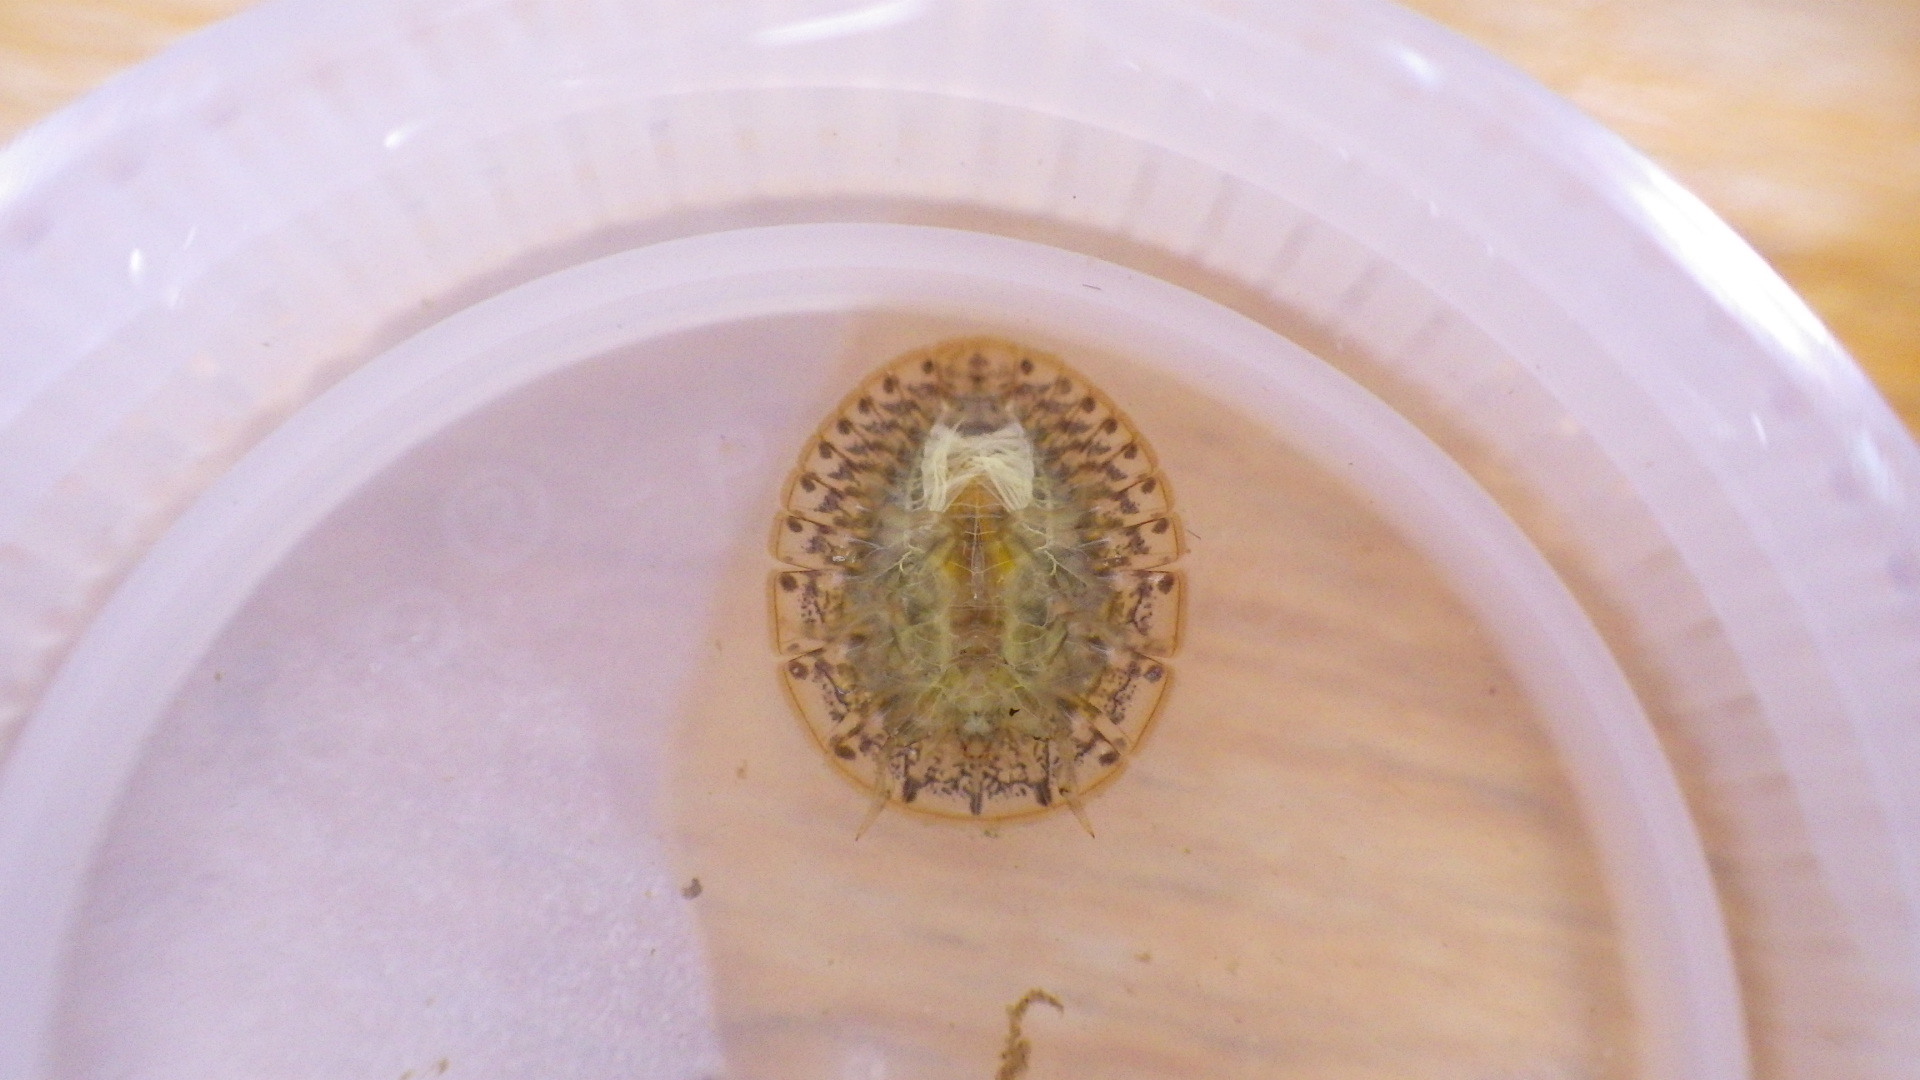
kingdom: Animalia
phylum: Arthropoda
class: Insecta
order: Coleoptera
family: Psephenidae
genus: Psephenus
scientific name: Psephenus herricki
